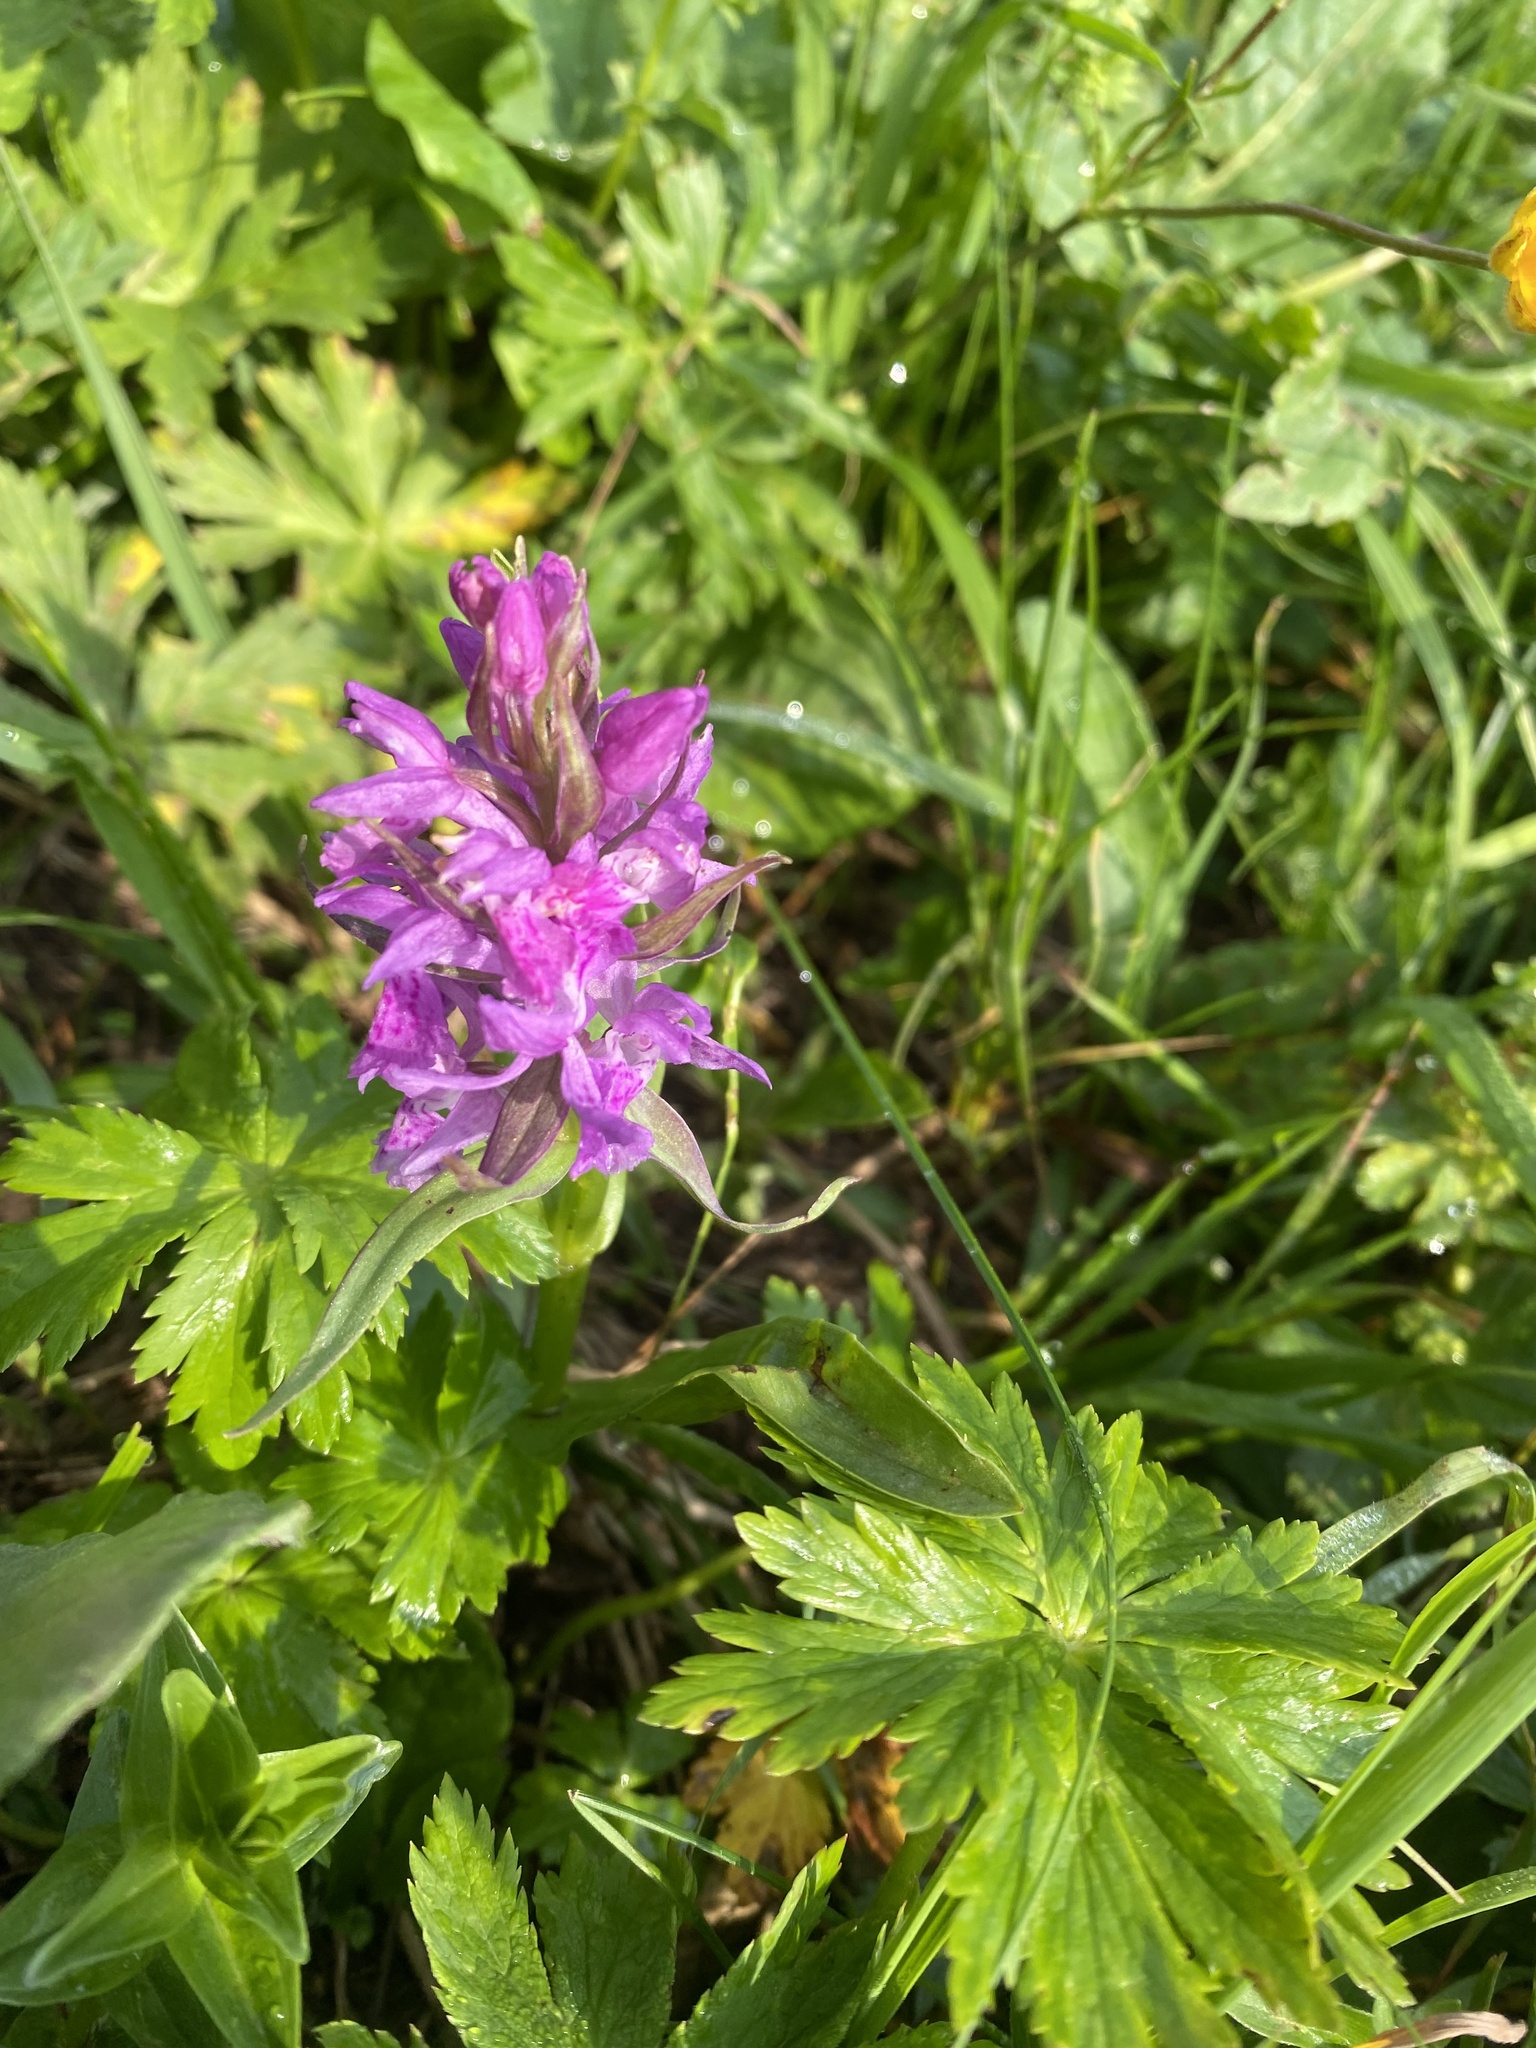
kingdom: Plantae
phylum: Tracheophyta
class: Liliopsida
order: Asparagales
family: Orchidaceae
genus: Dactylorhiza
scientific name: Dactylorhiza euxina
